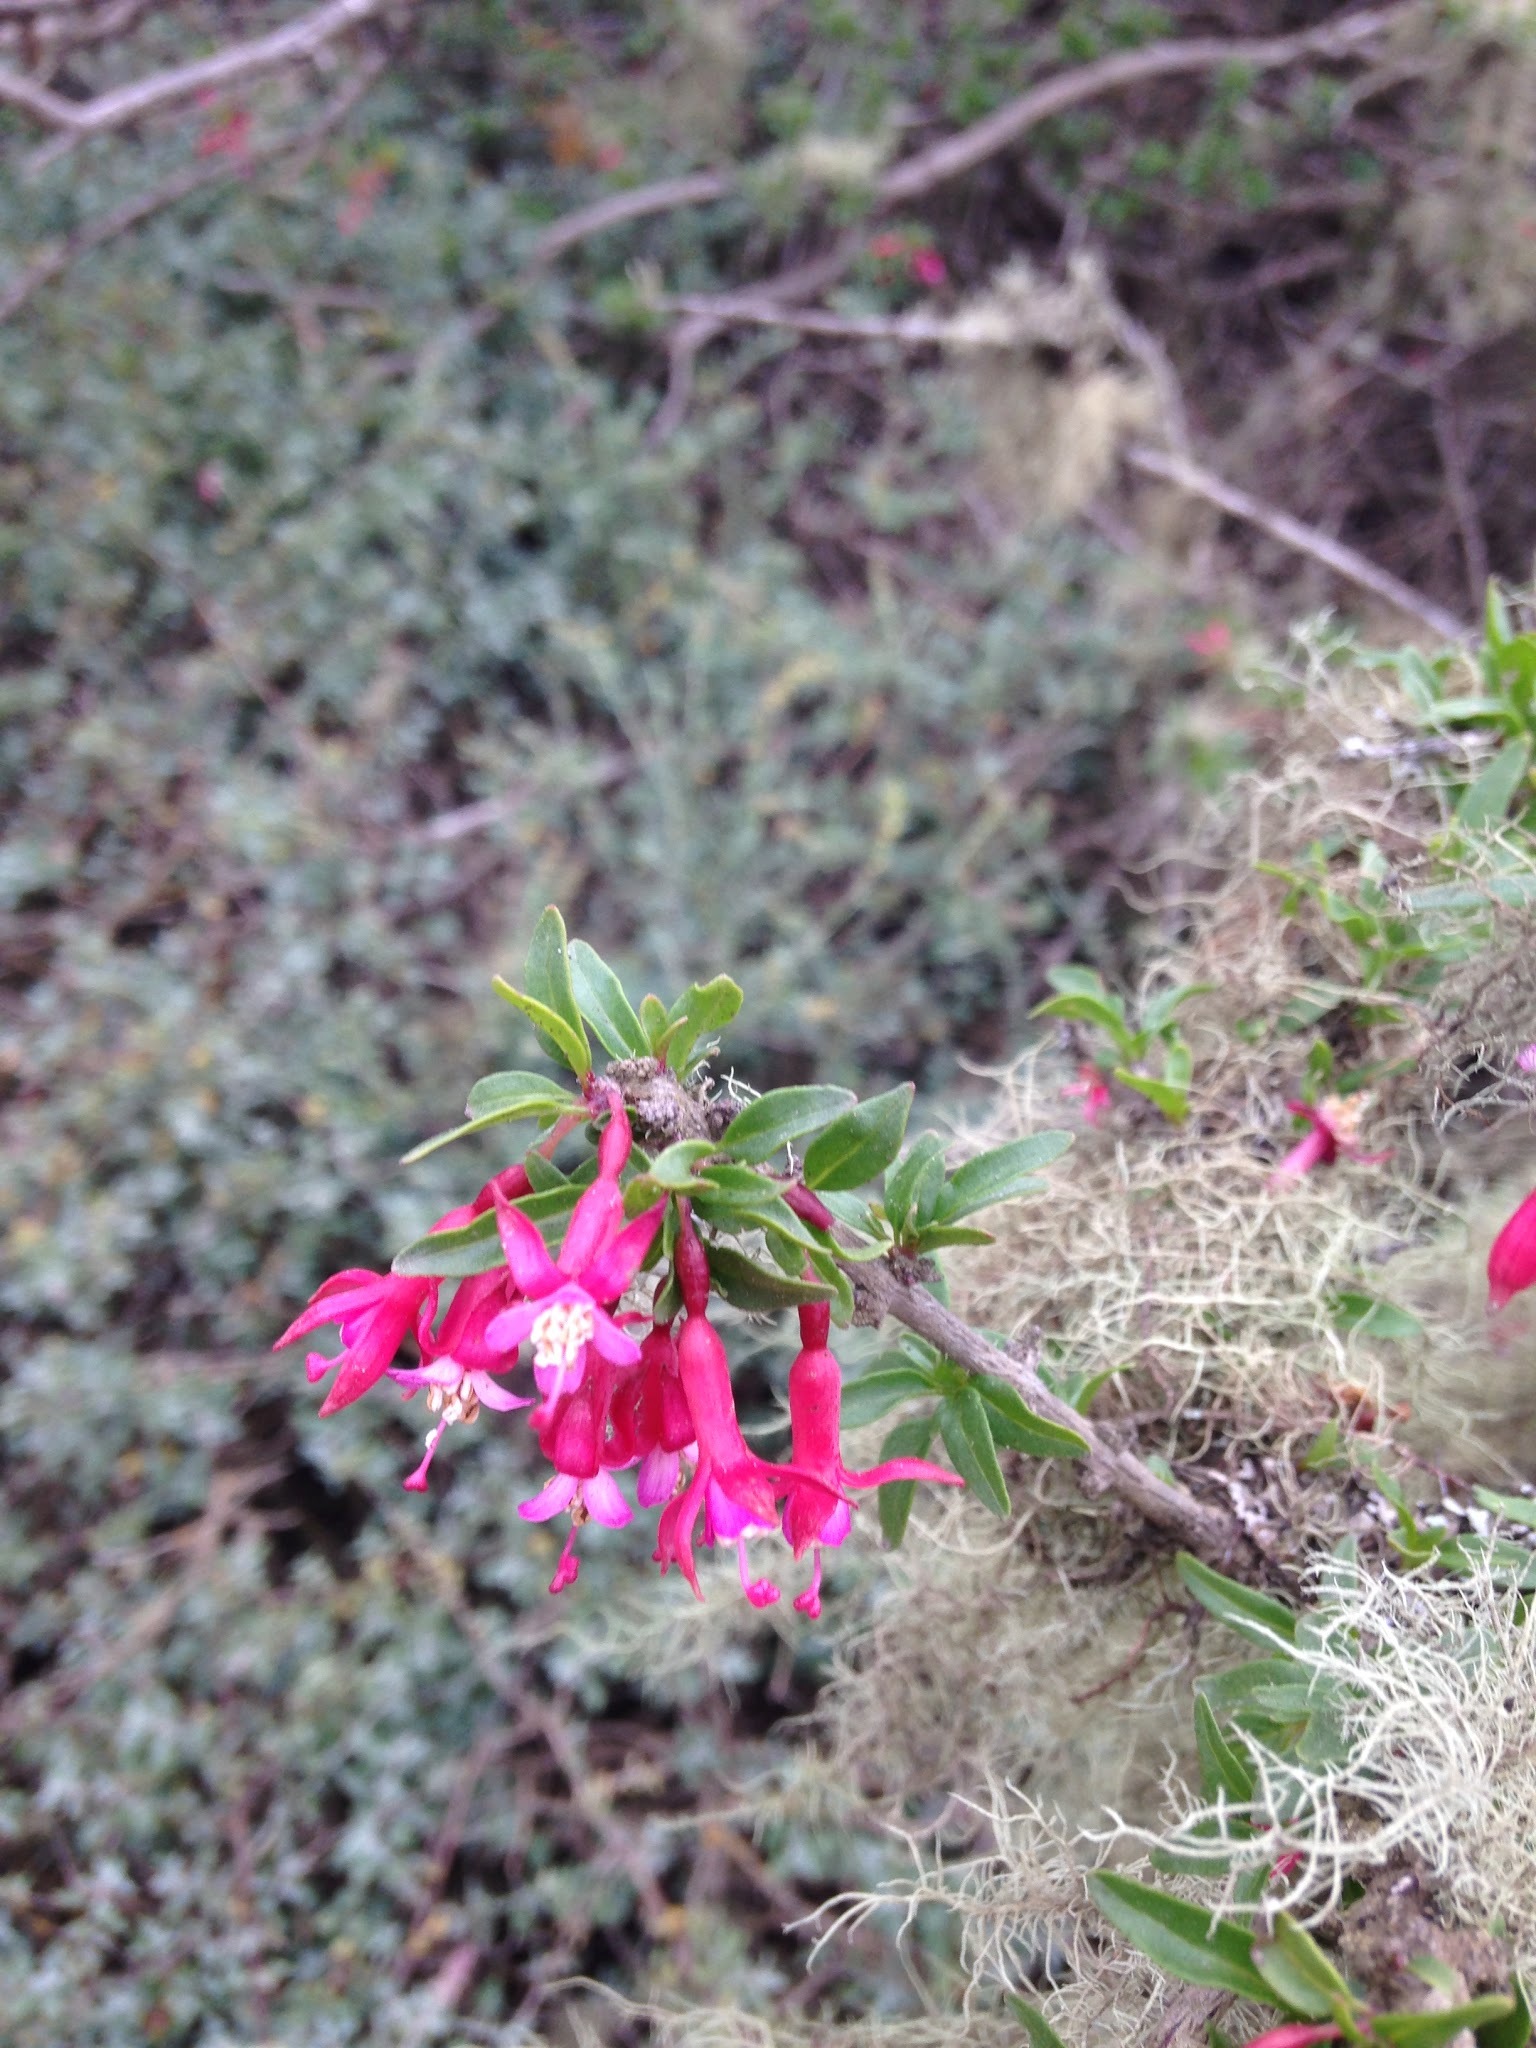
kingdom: Plantae
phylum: Tracheophyta
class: Magnoliopsida
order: Myrtales
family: Onagraceae
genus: Fuchsia
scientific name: Fuchsia lycioides
